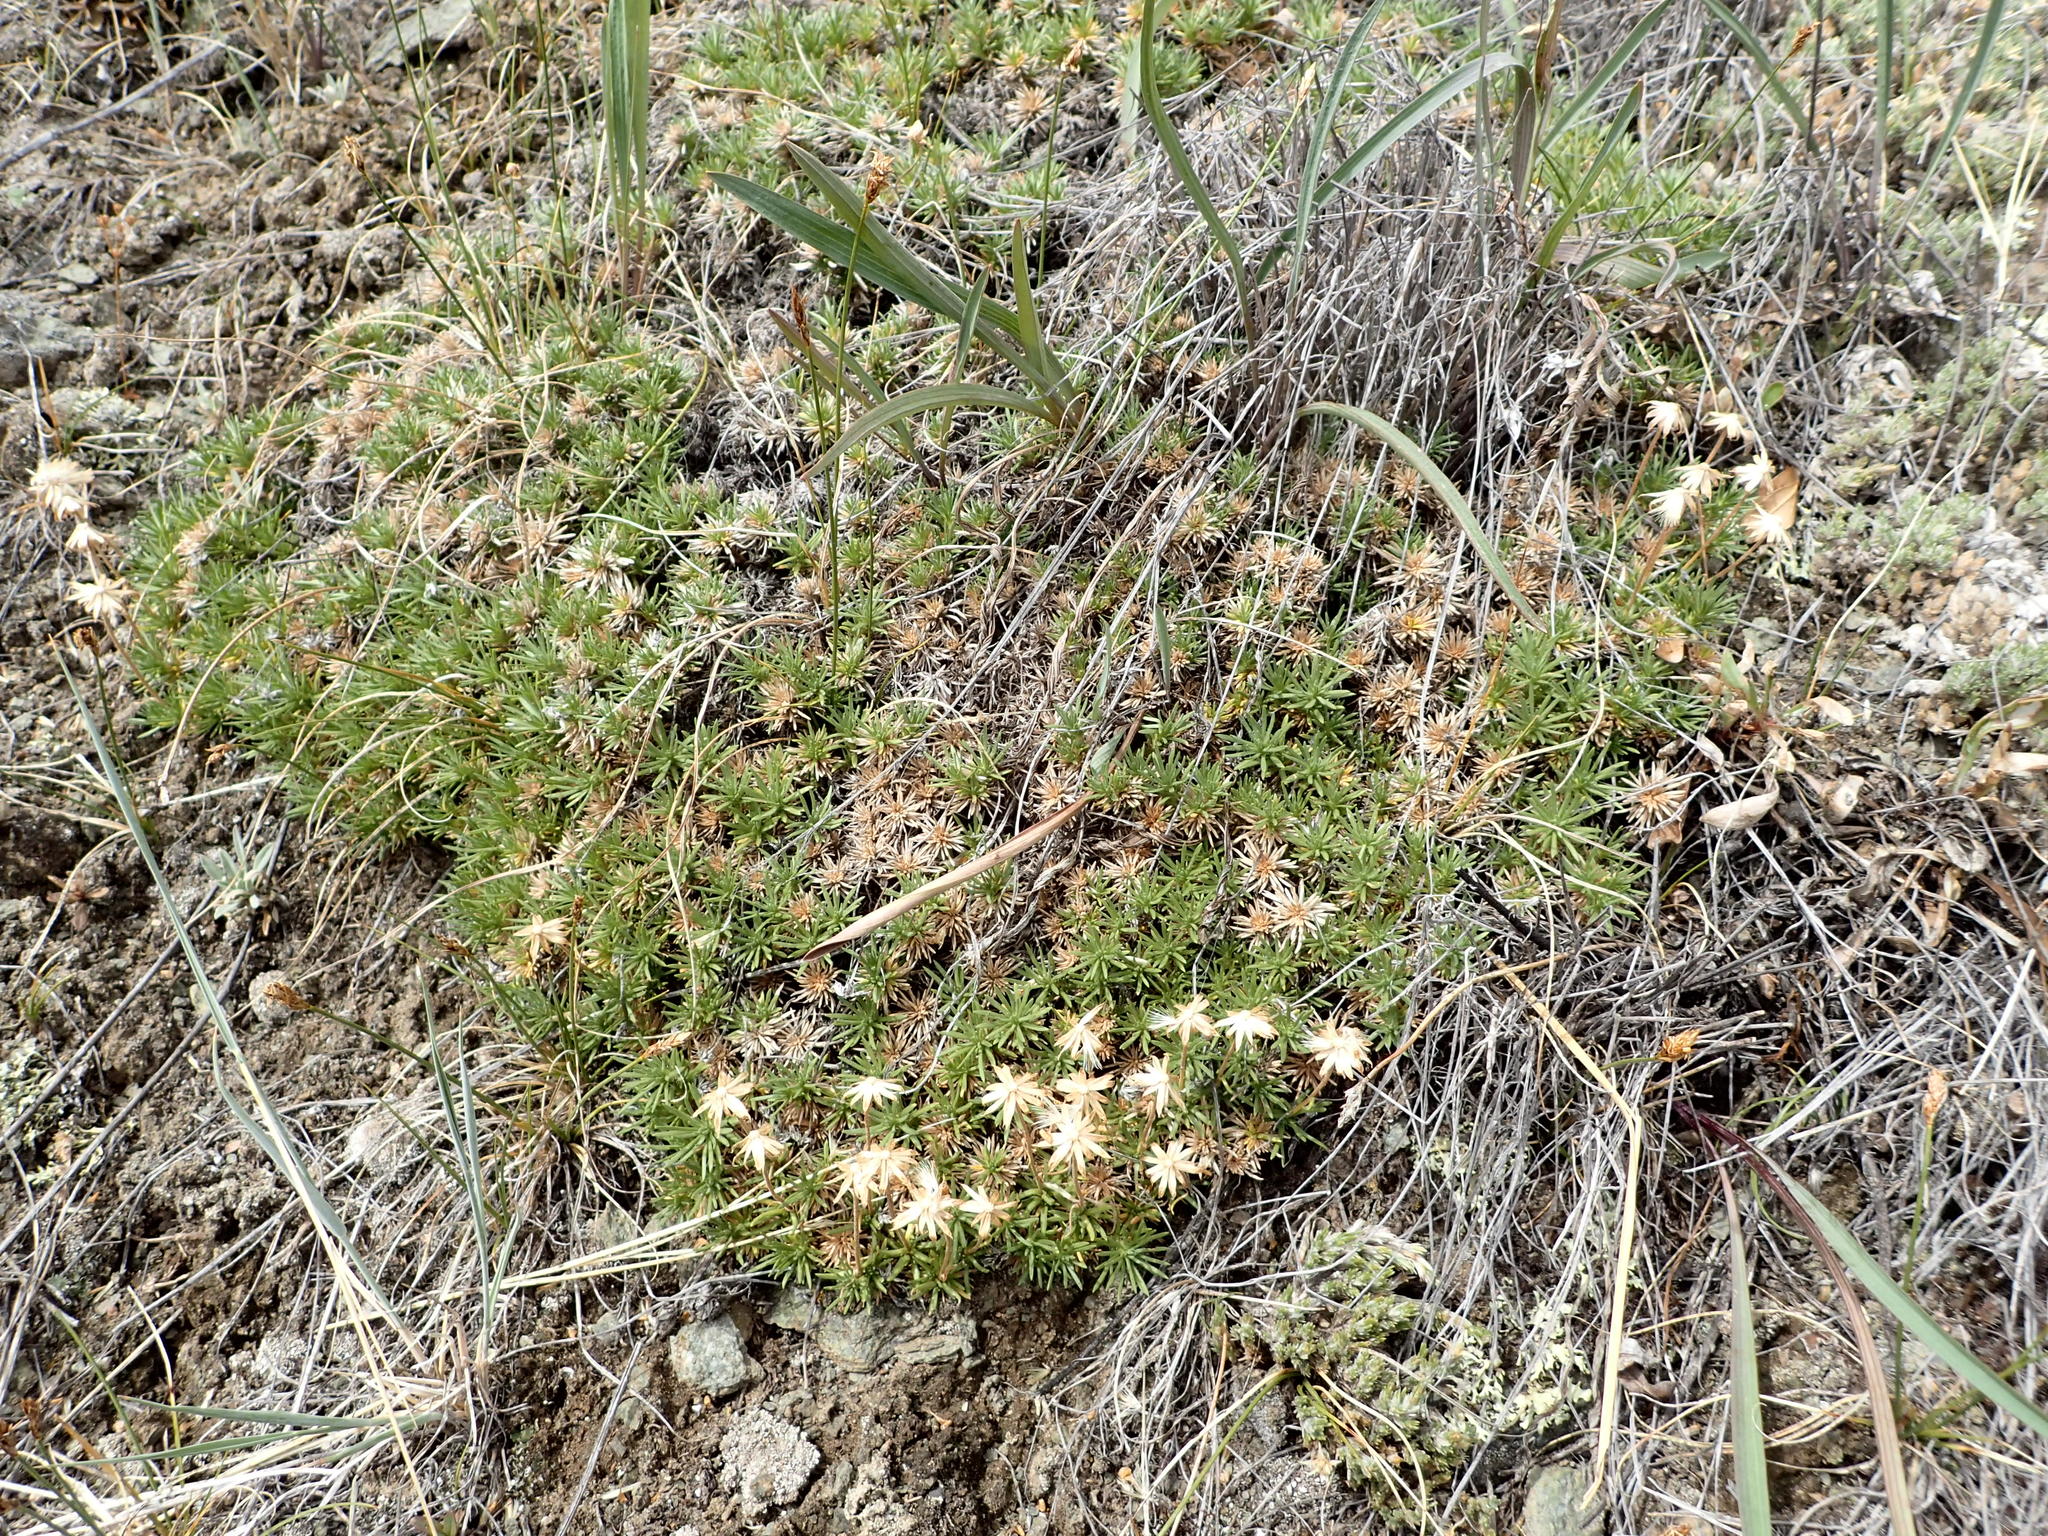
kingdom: Plantae
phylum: Tracheophyta
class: Magnoliopsida
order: Asterales
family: Asteraceae
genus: Nestotus
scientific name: Nestotus macleanii
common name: Maclean's goldenweed
